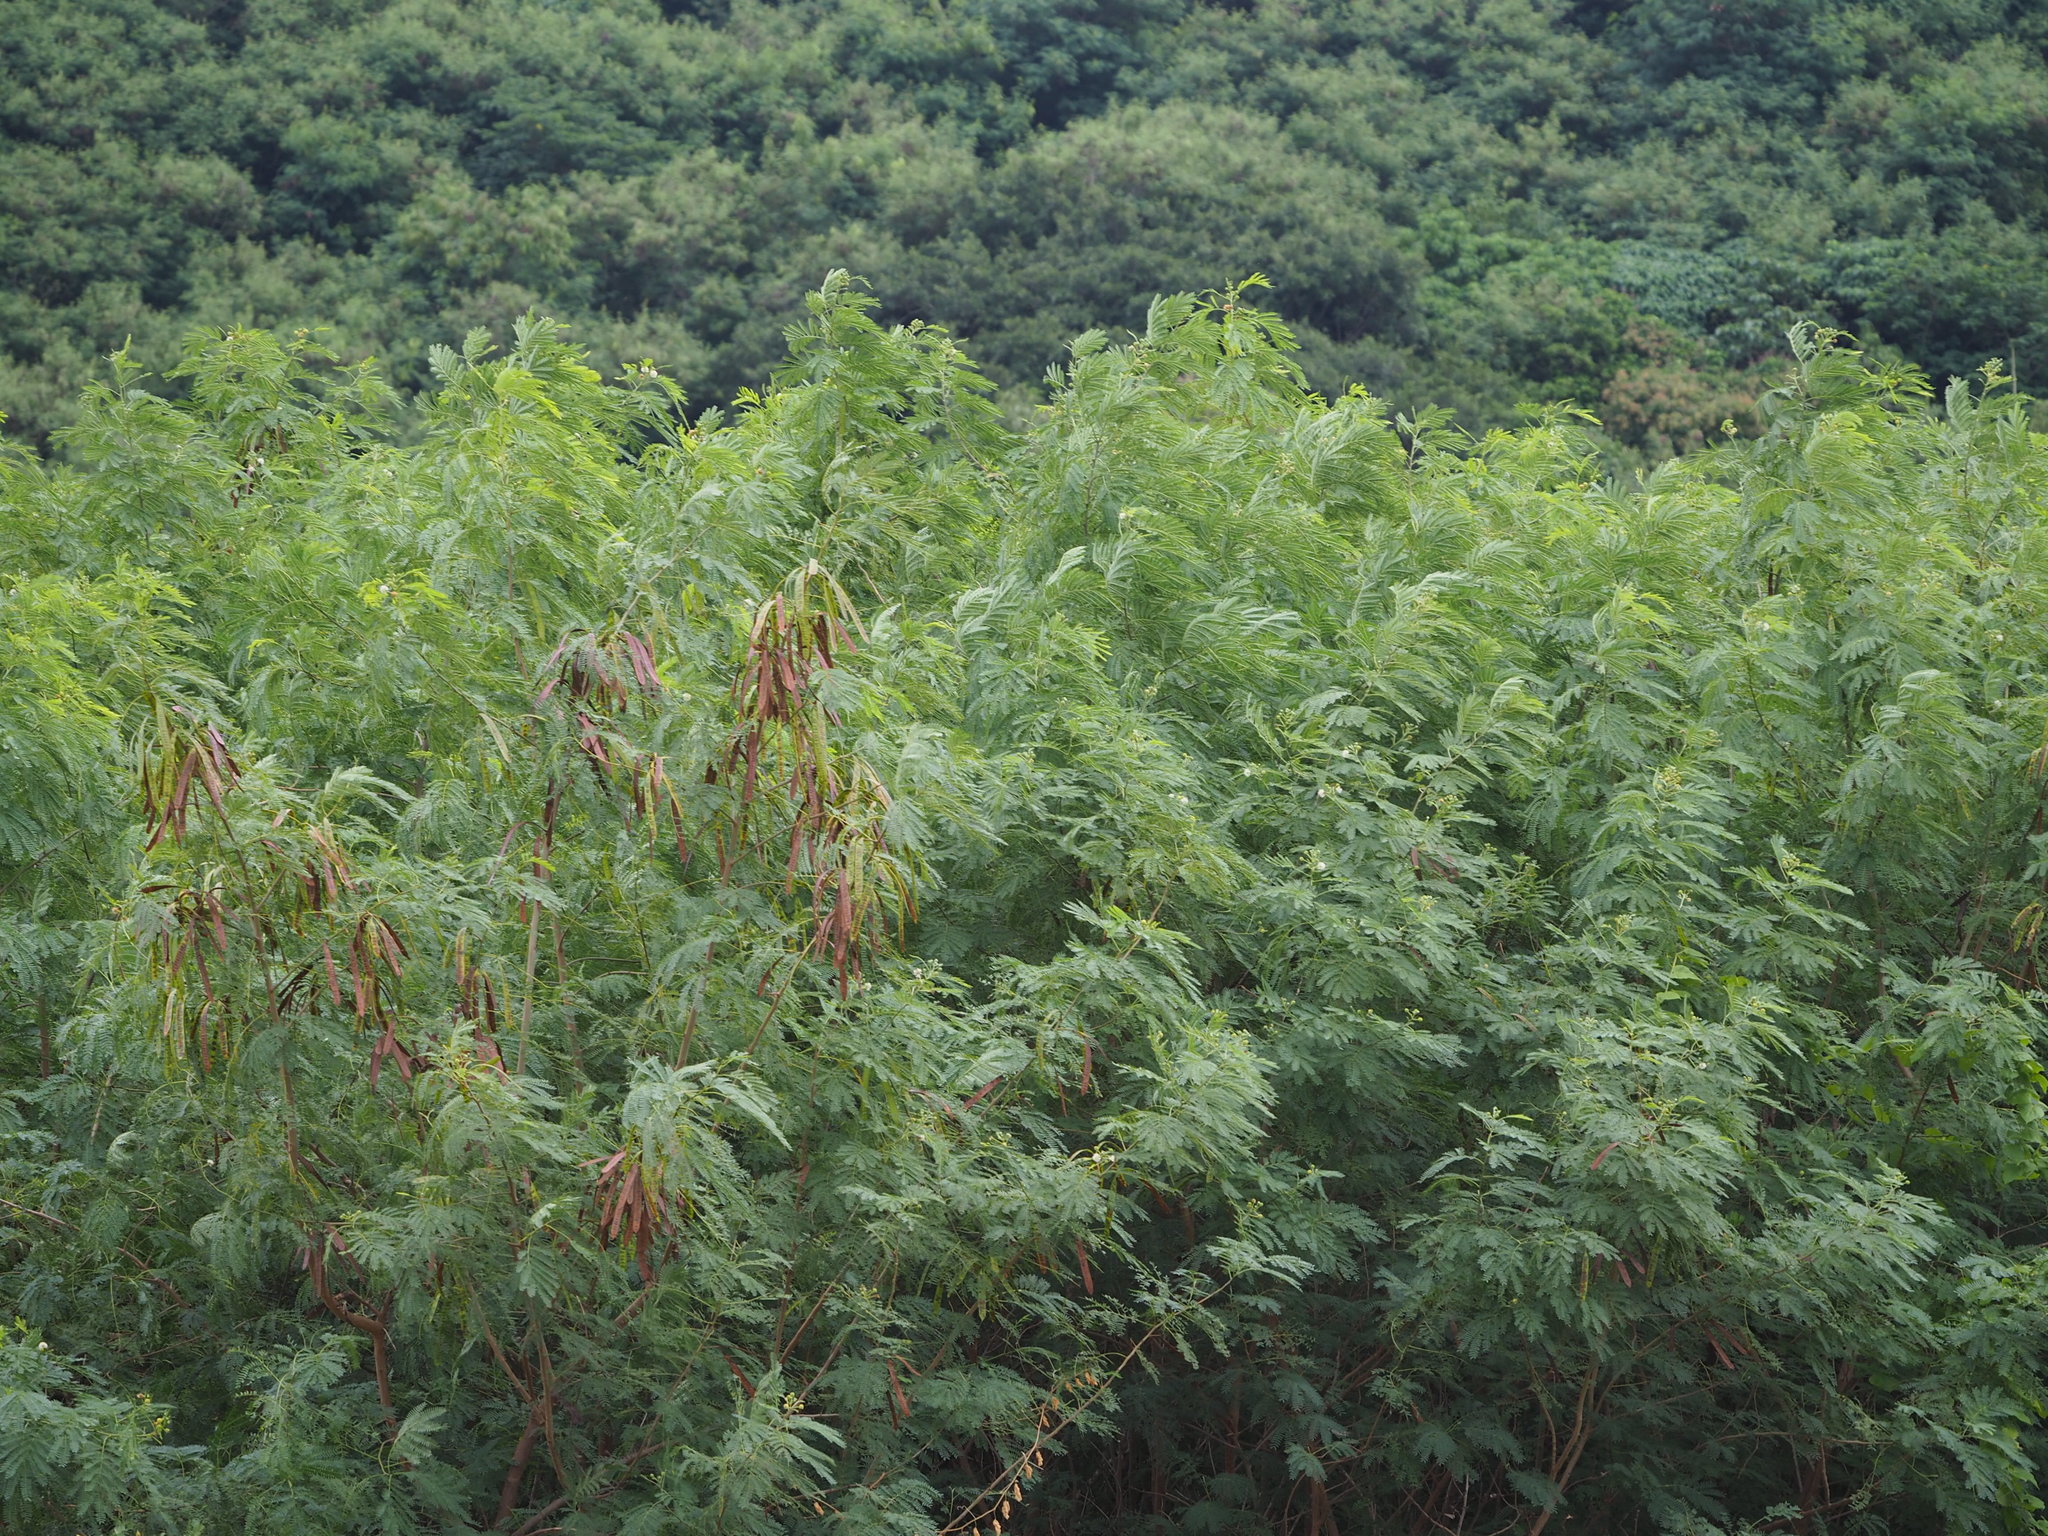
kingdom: Plantae
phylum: Tracheophyta
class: Magnoliopsida
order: Fabales
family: Fabaceae
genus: Leucaena
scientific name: Leucaena leucocephala
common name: White leadtree
